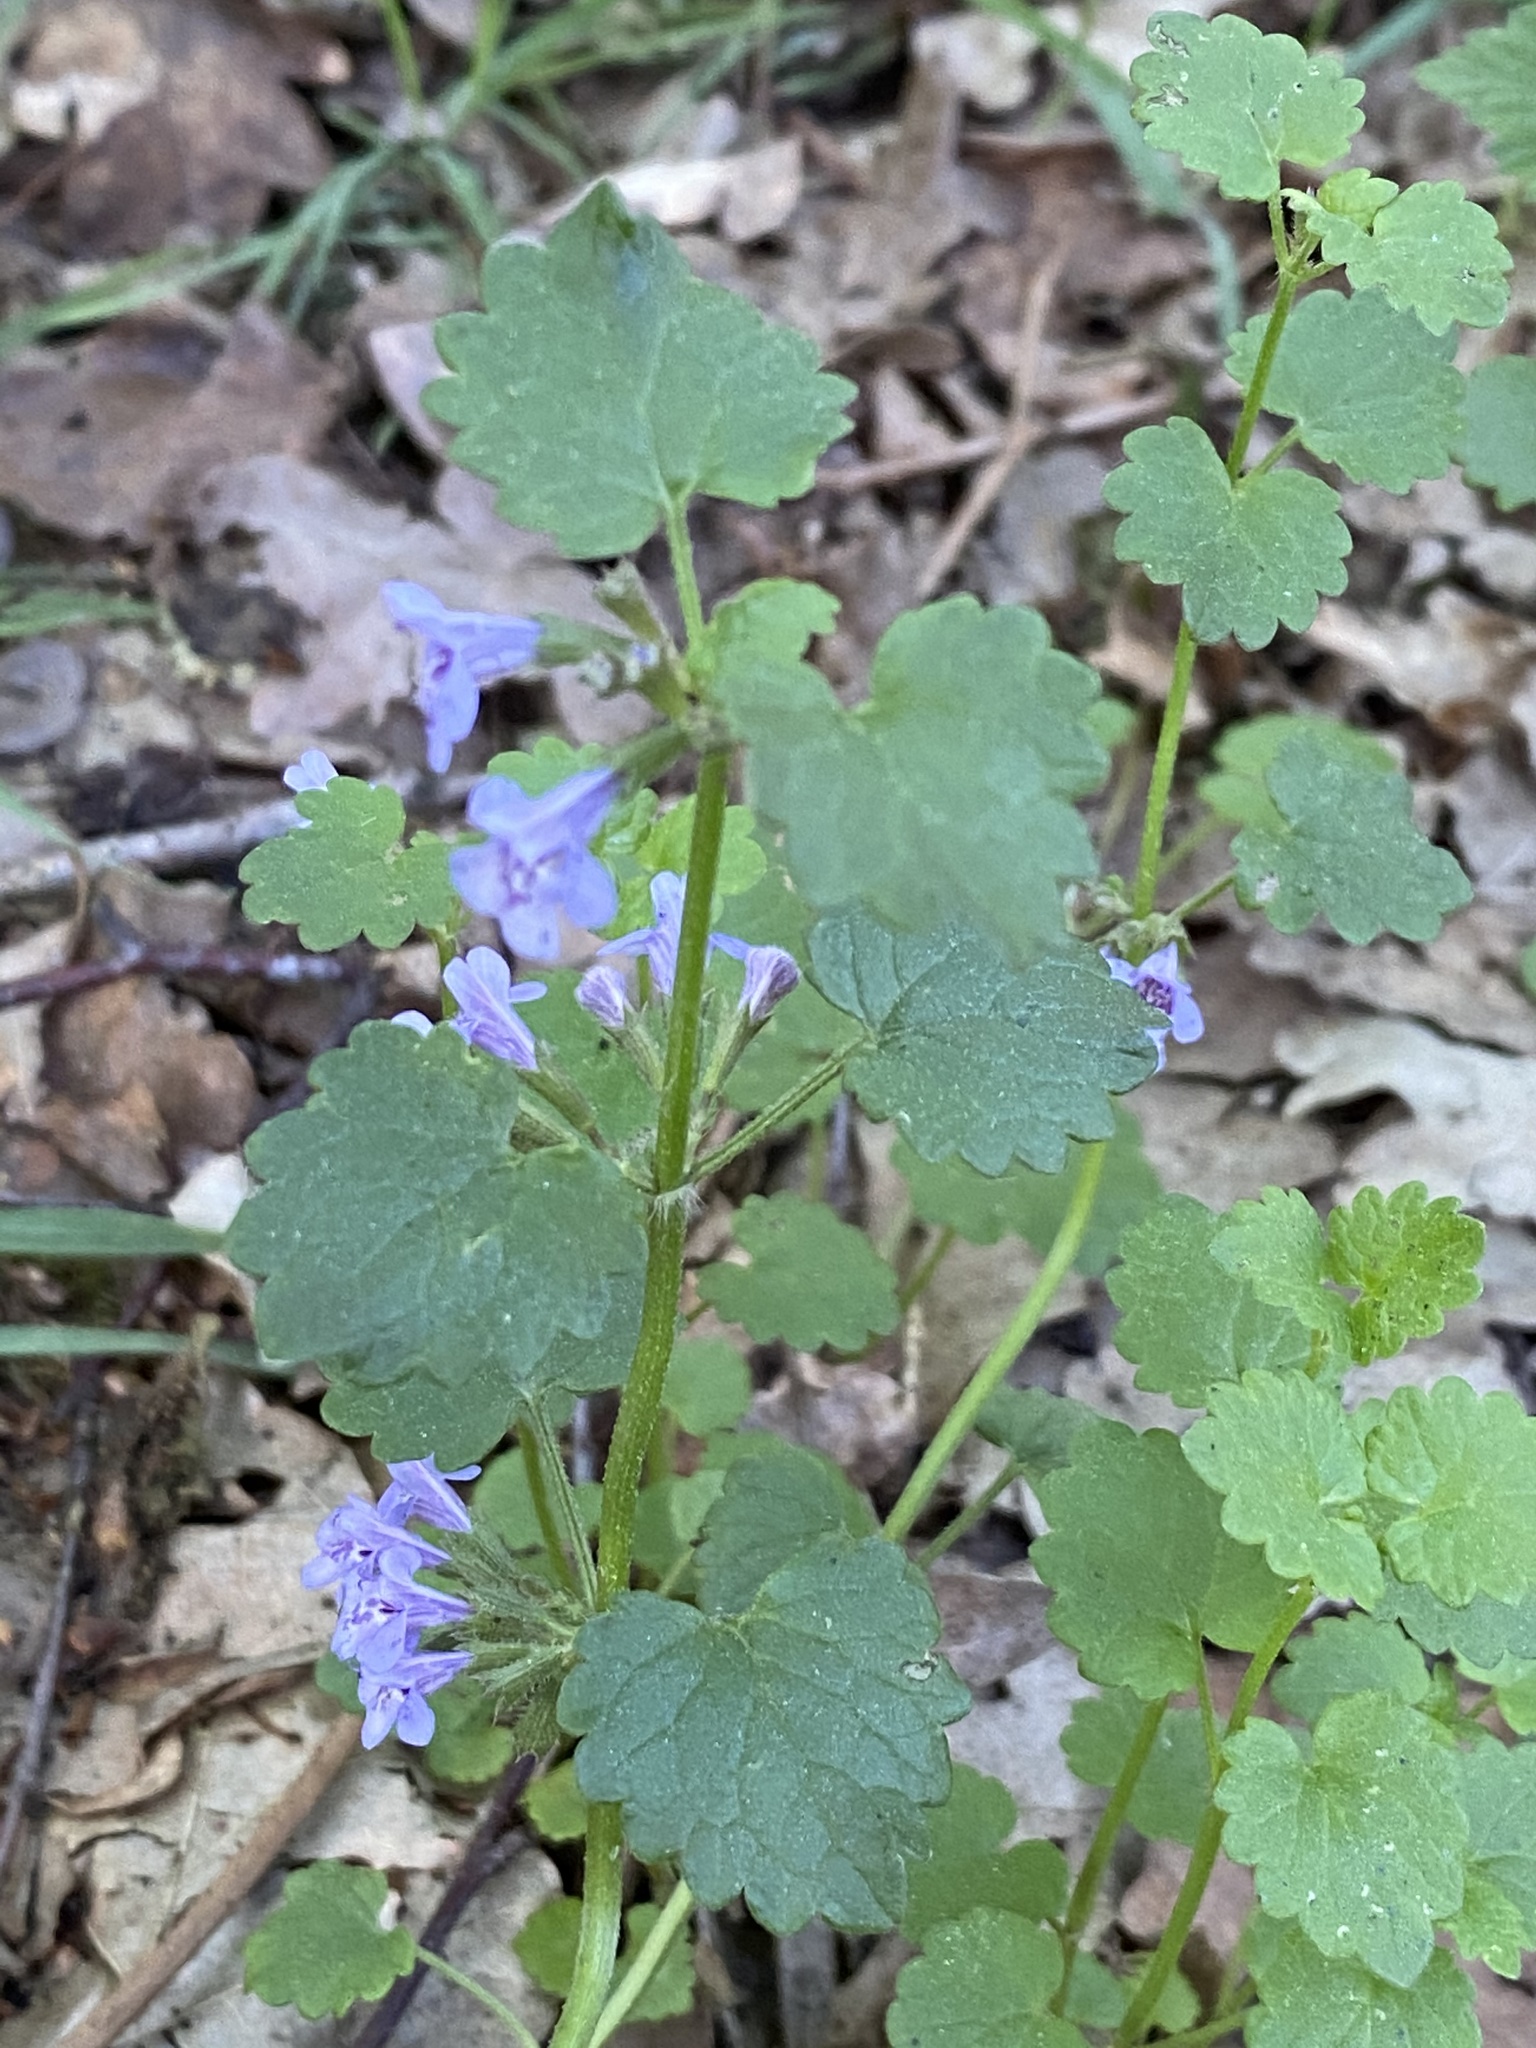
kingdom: Plantae
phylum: Tracheophyta
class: Magnoliopsida
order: Lamiales
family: Lamiaceae
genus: Glechoma
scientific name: Glechoma hederacea
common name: Ground ivy
